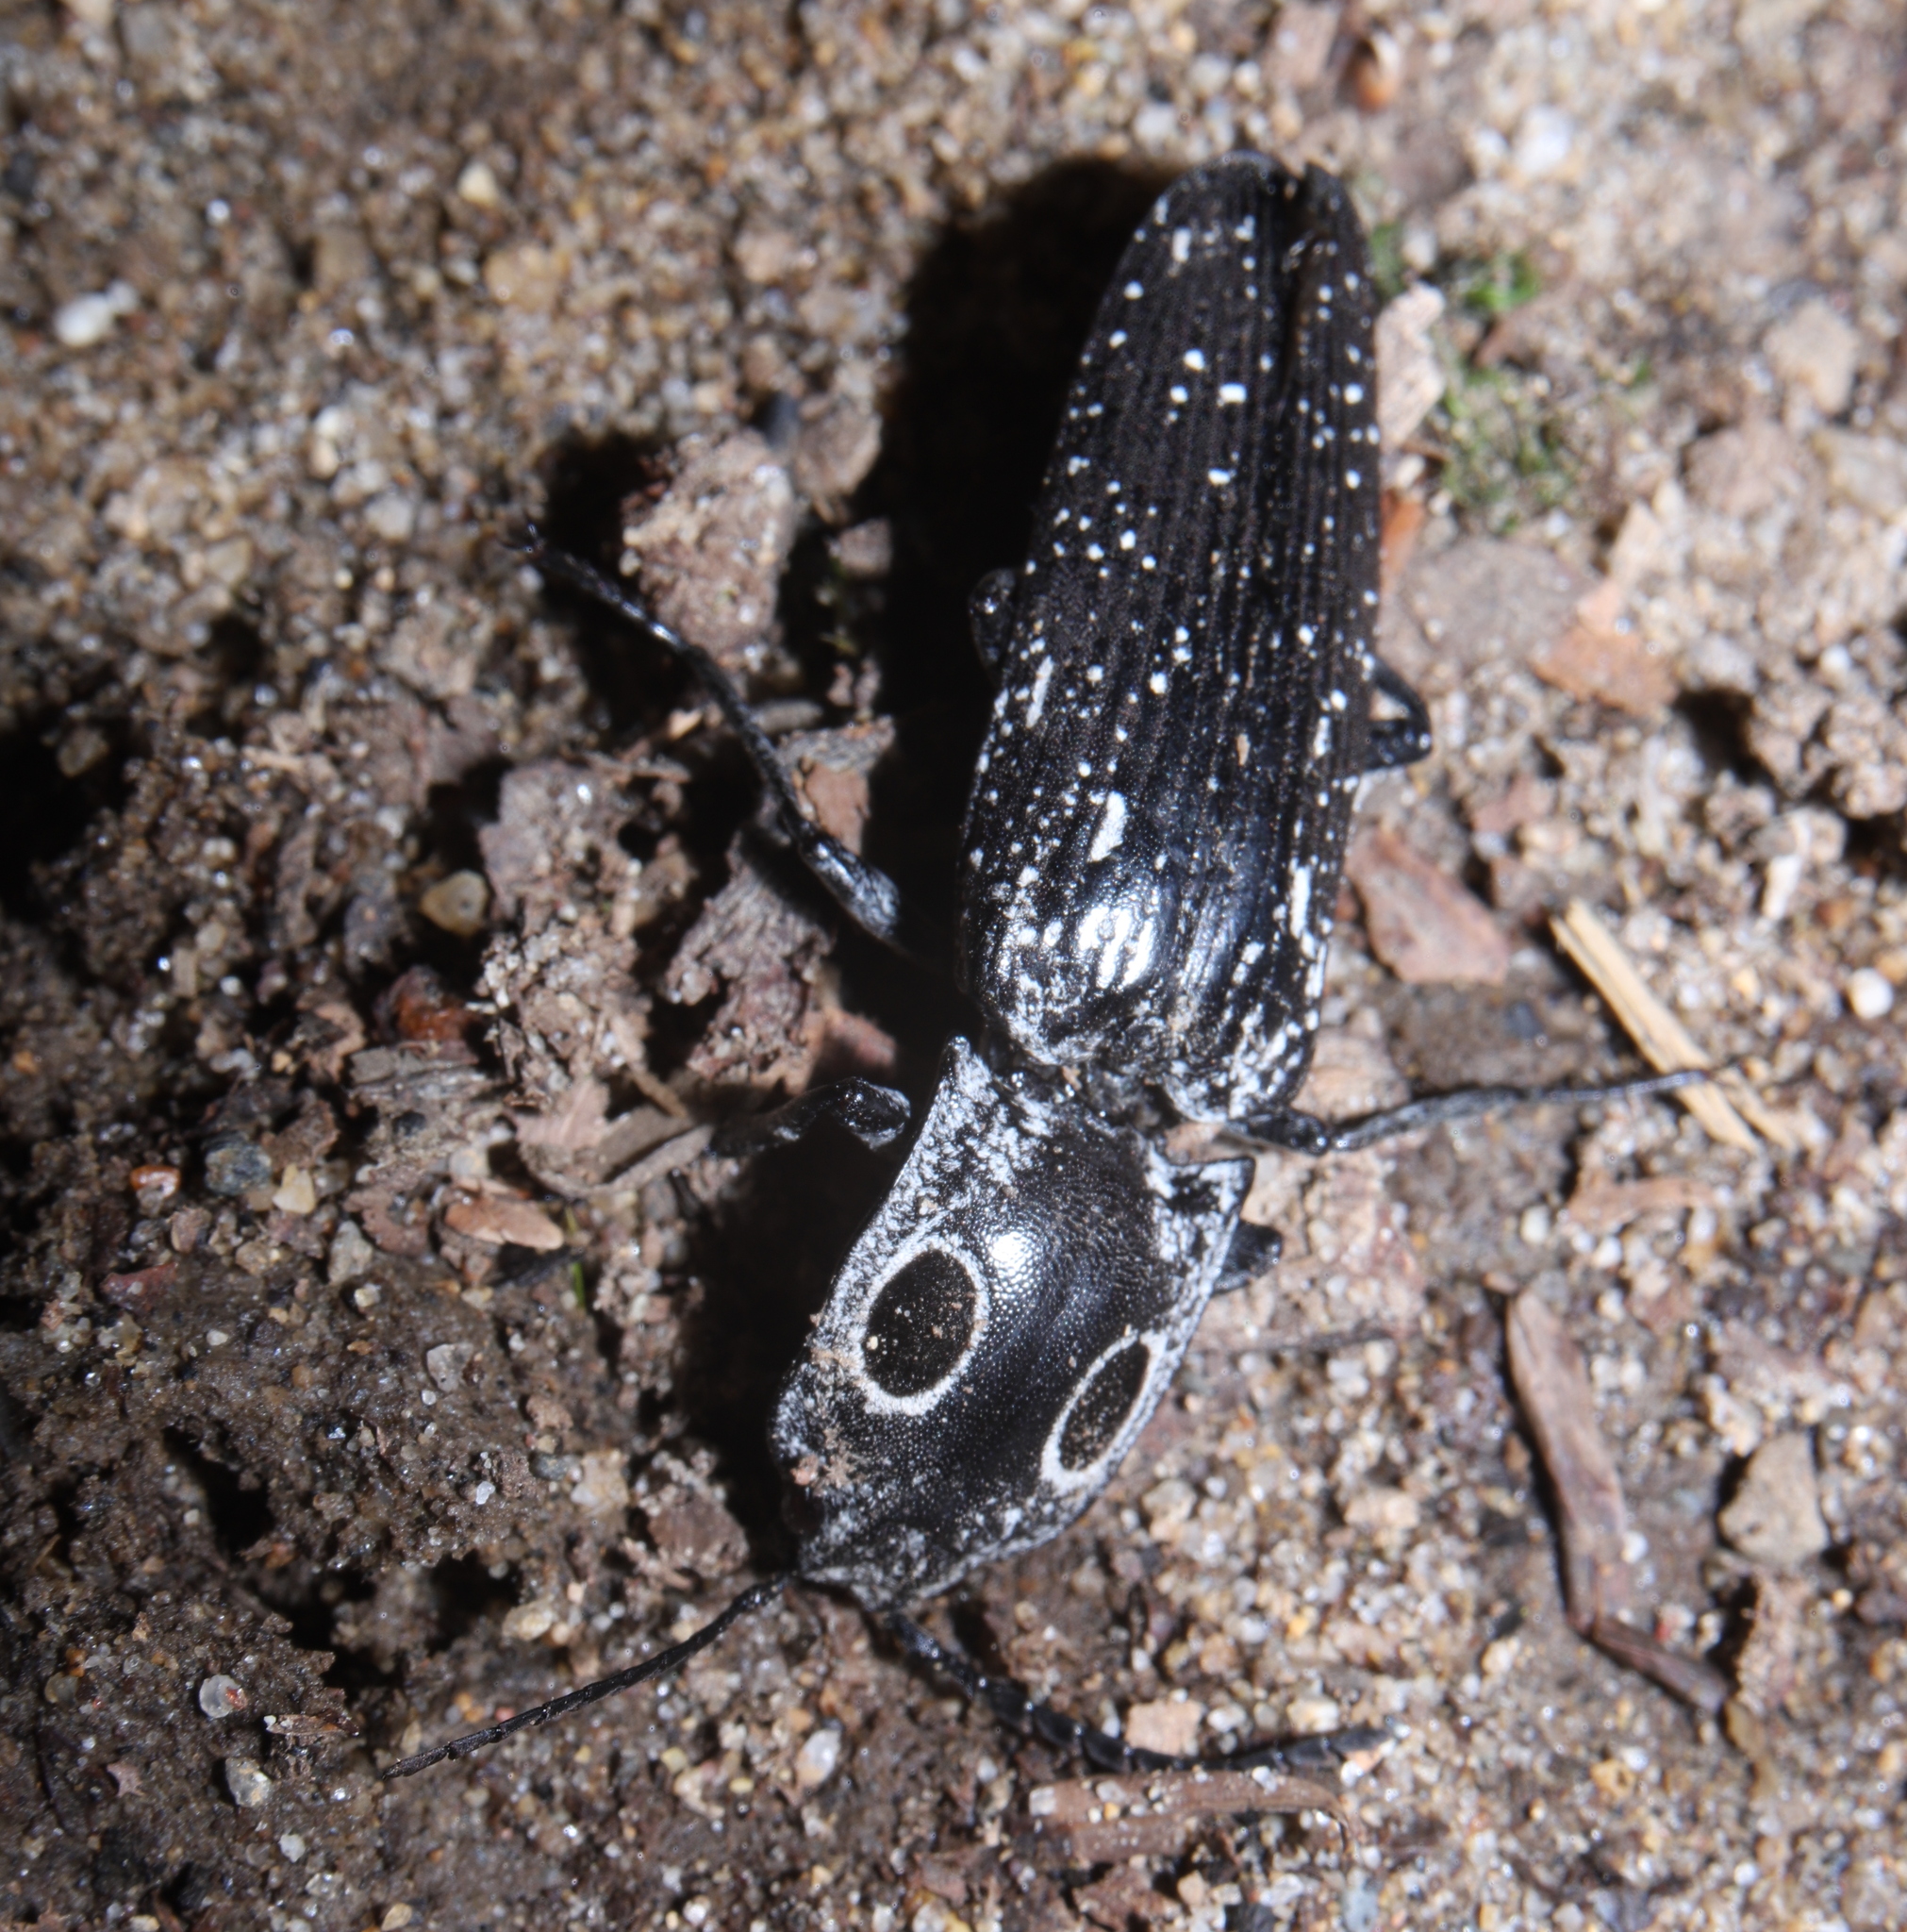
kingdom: Animalia
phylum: Arthropoda
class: Insecta
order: Coleoptera
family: Elateridae
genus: Alaus
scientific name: Alaus oculatus
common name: Eastern eyed click beetle
